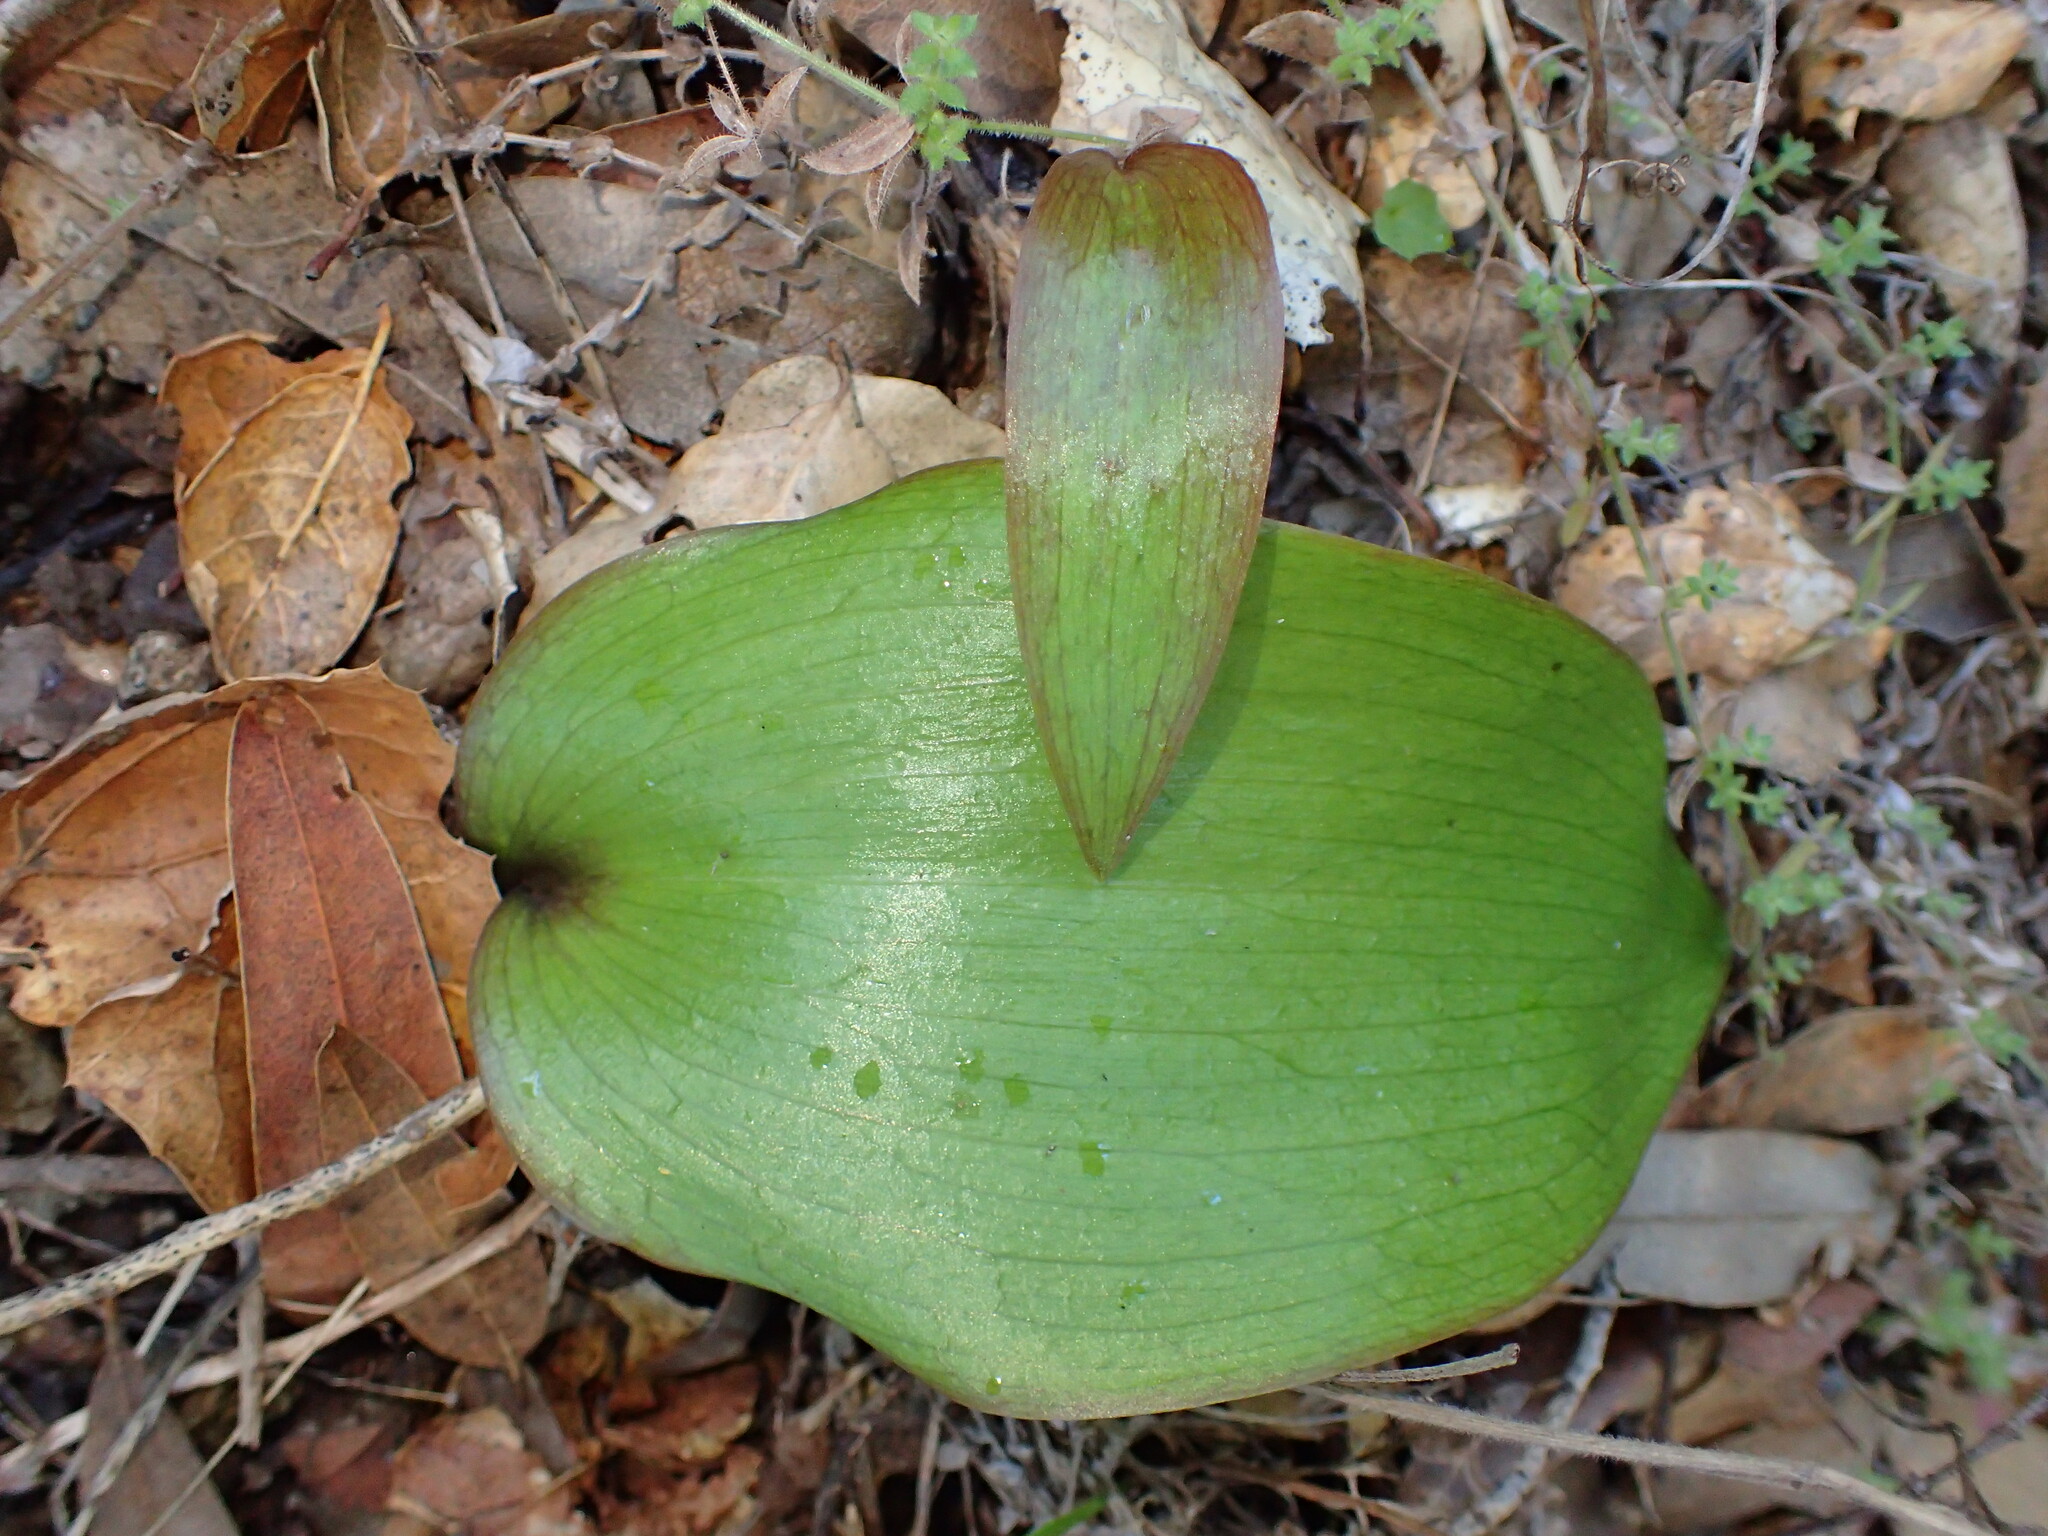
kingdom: Plantae
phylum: Tracheophyta
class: Liliopsida
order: Liliales
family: Liliaceae
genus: Fritillaria
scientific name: Fritillaria ojaiensis
